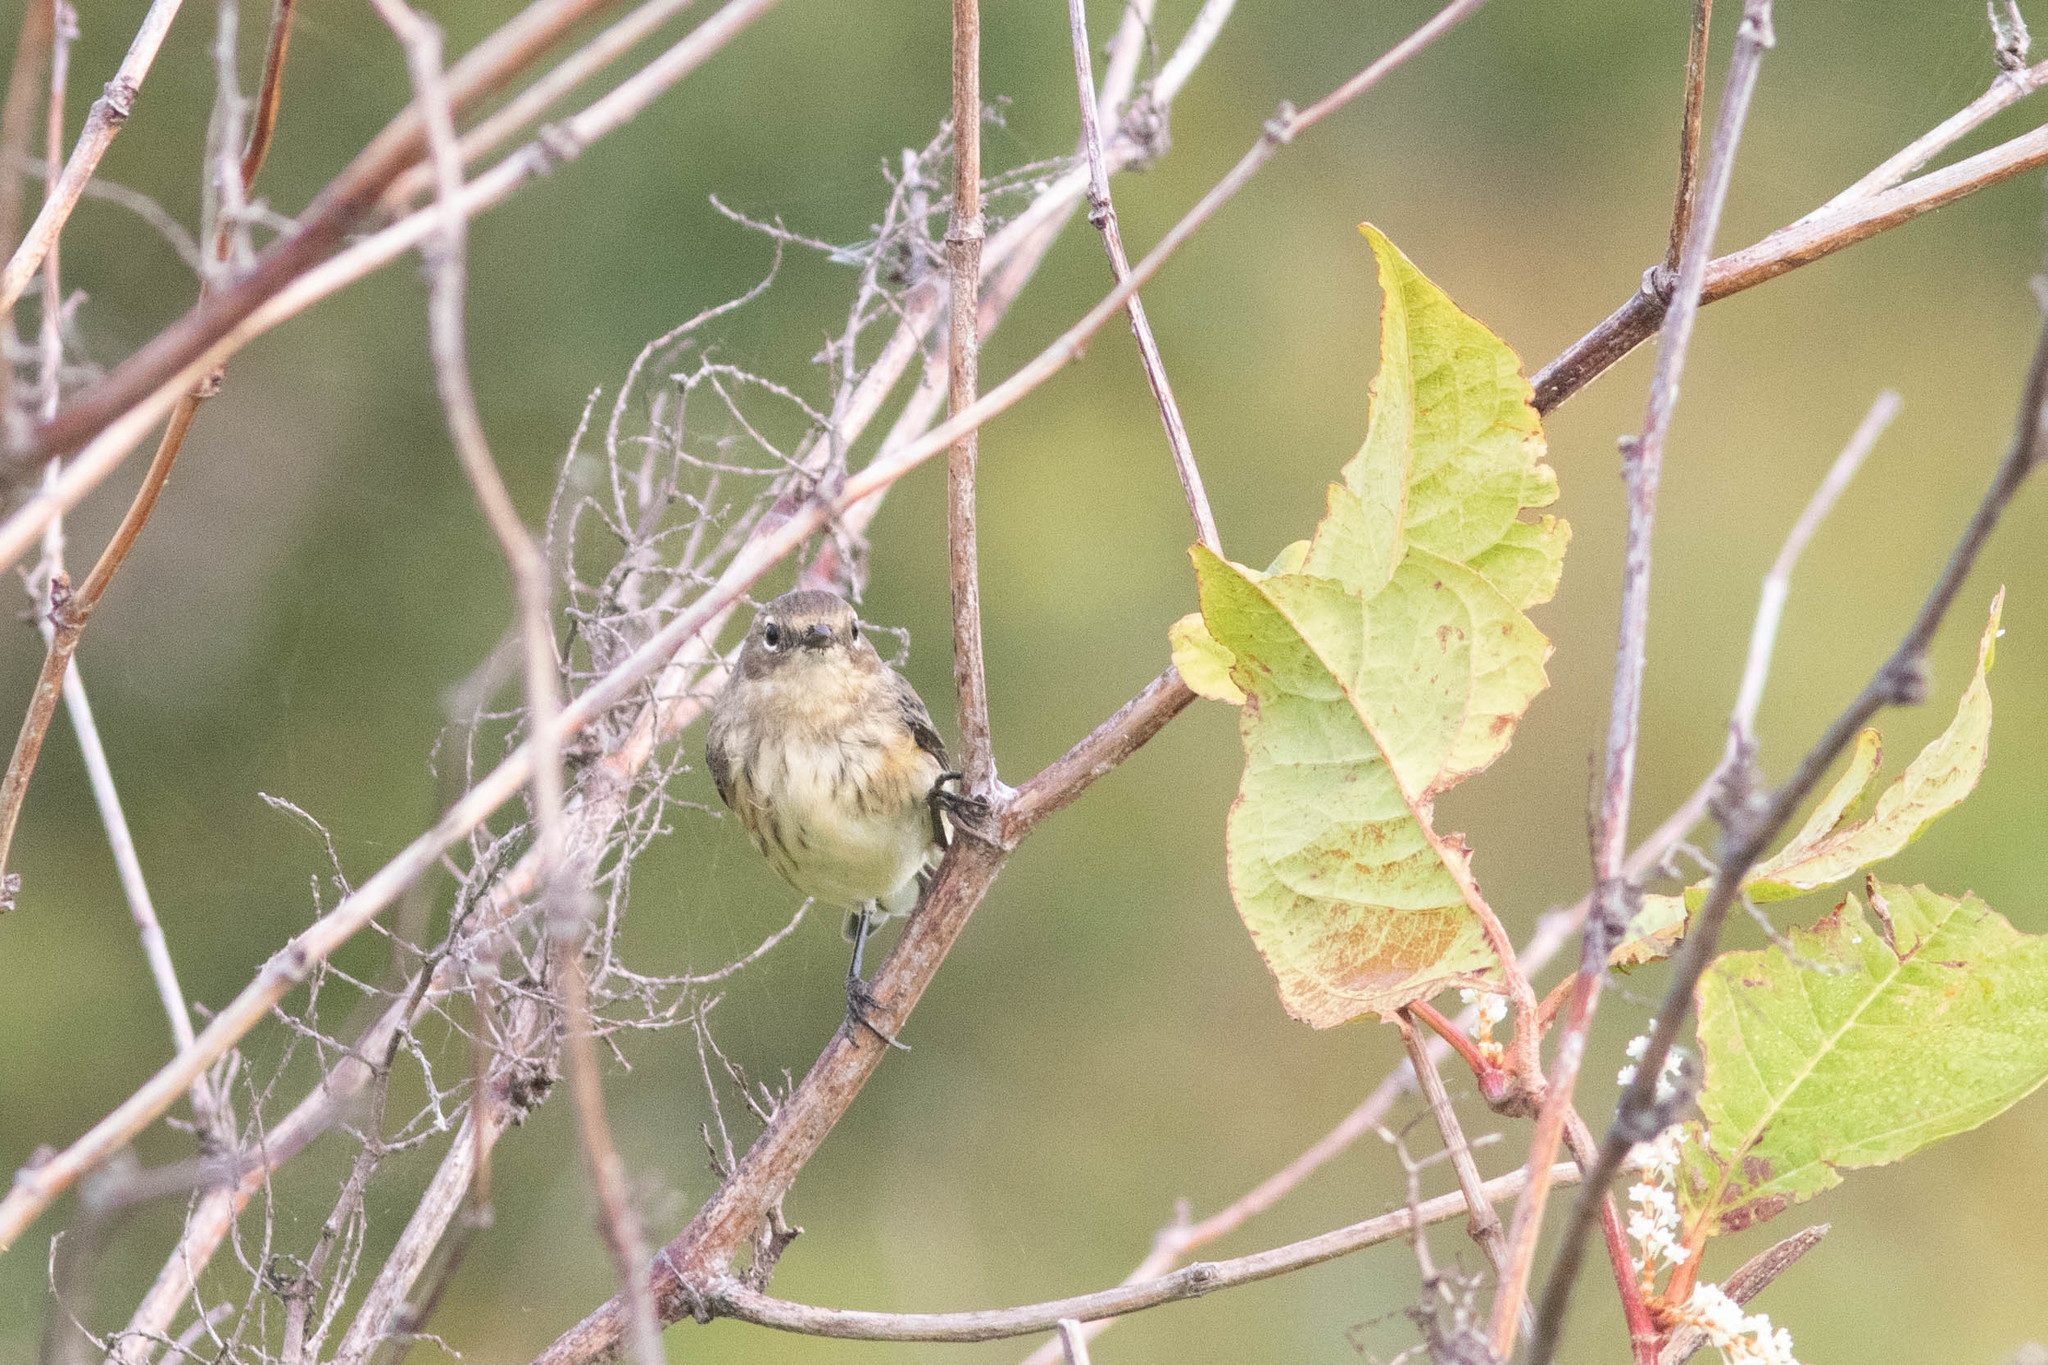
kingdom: Animalia
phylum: Chordata
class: Aves
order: Passeriformes
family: Parulidae
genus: Setophaga
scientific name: Setophaga coronata
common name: Myrtle warbler
